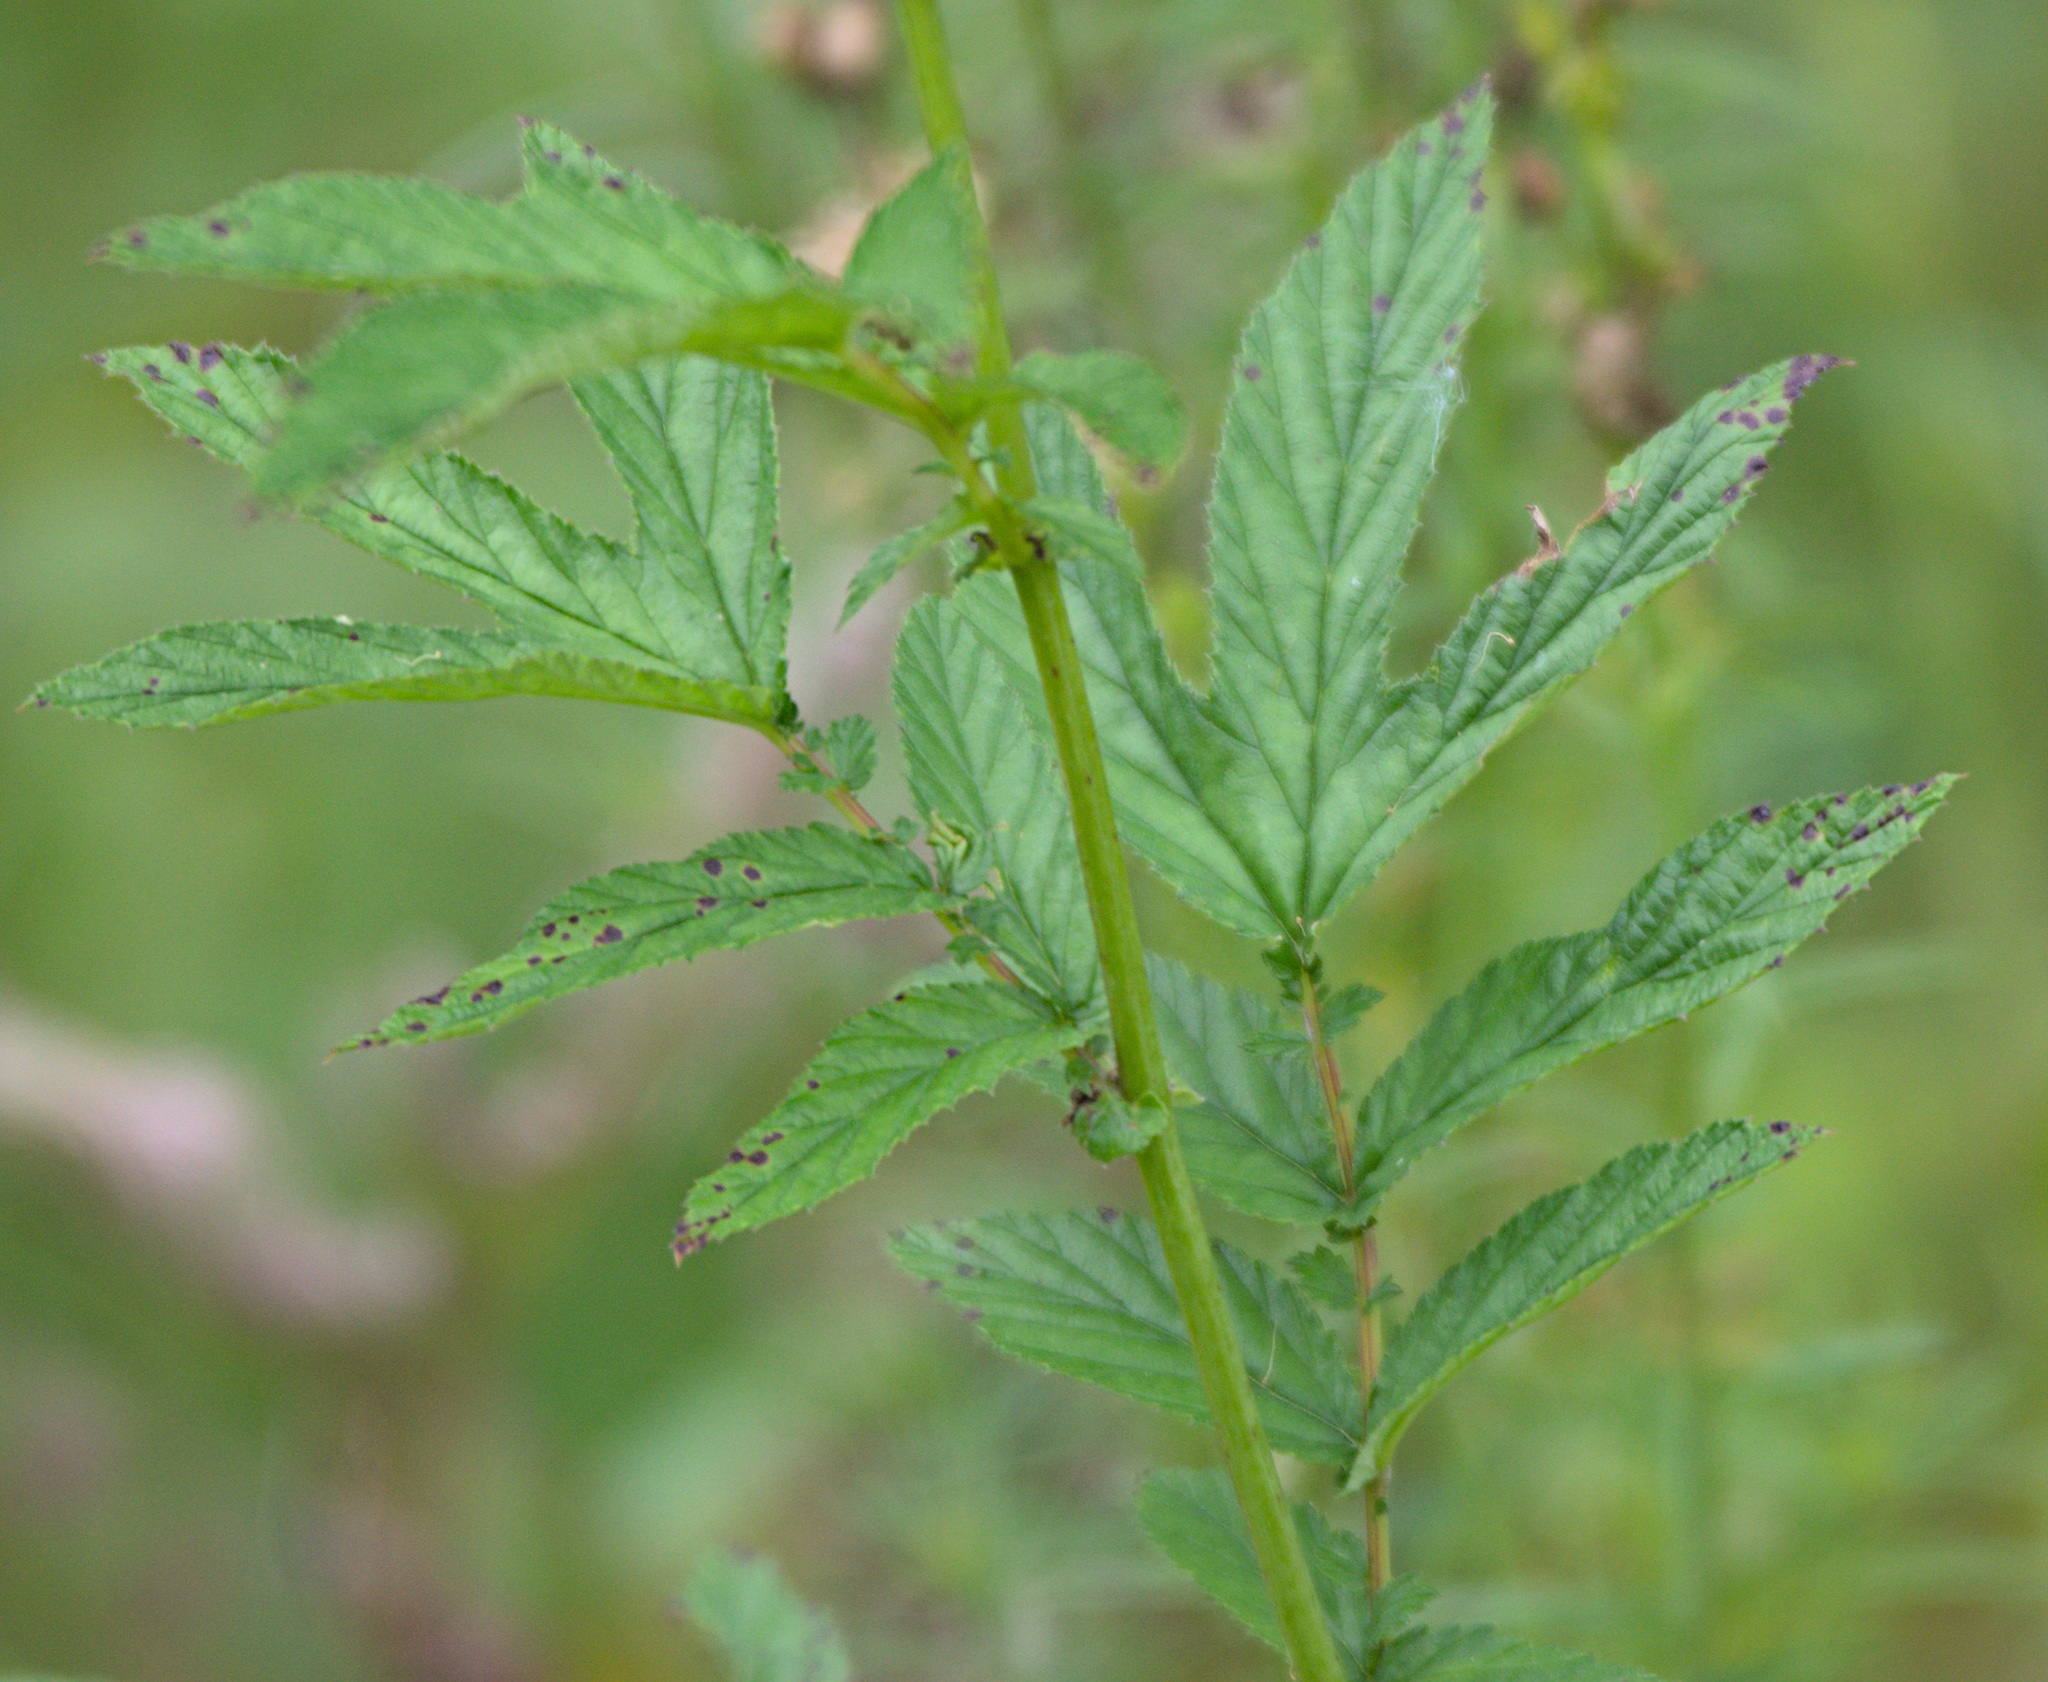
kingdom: Plantae
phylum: Tracheophyta
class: Magnoliopsida
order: Rosales
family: Rosaceae
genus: Filipendula
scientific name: Filipendula ulmaria
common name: Meadowsweet
